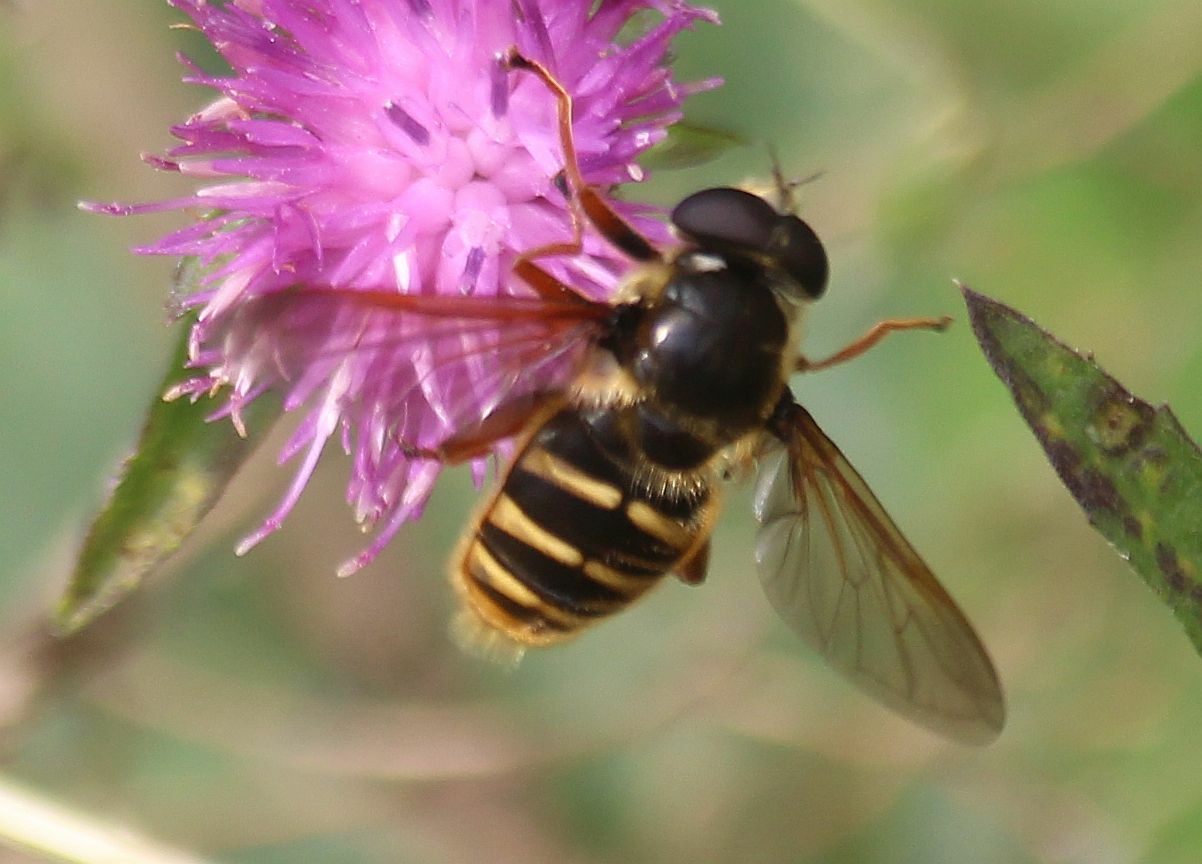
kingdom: Animalia
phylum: Arthropoda
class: Insecta
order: Diptera
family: Syrphidae
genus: Sericomyia
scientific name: Sericomyia silentis
